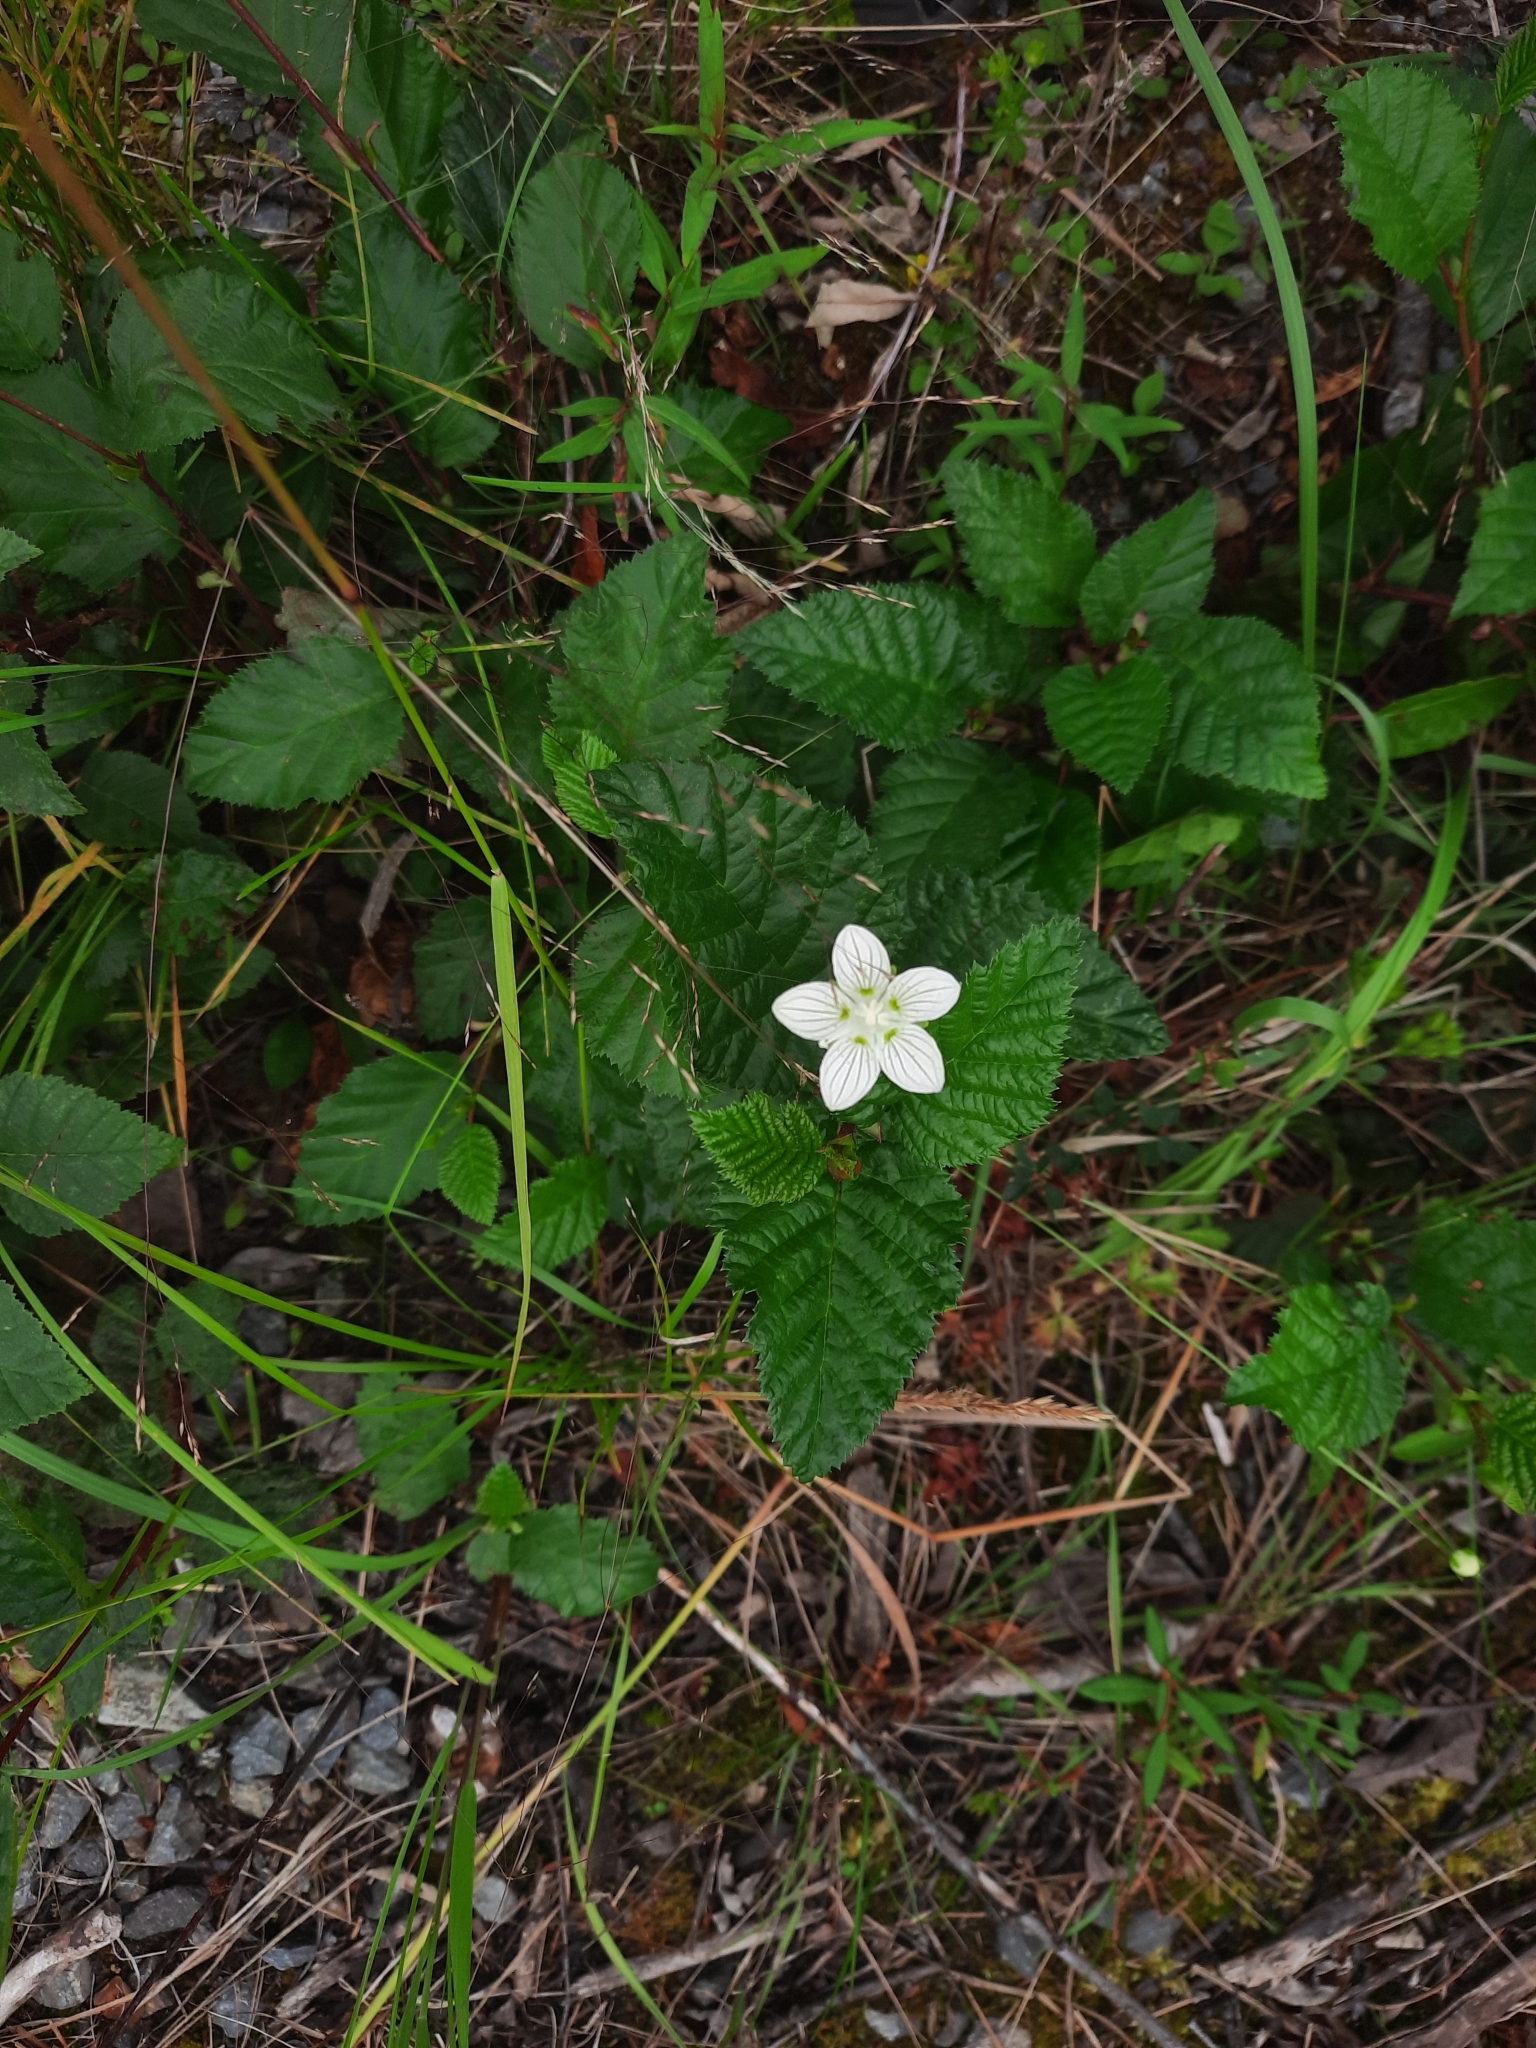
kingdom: Plantae
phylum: Tracheophyta
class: Magnoliopsida
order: Celastrales
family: Parnassiaceae
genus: Parnassia
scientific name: Parnassia palustris
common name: Grass-of-parnassus
